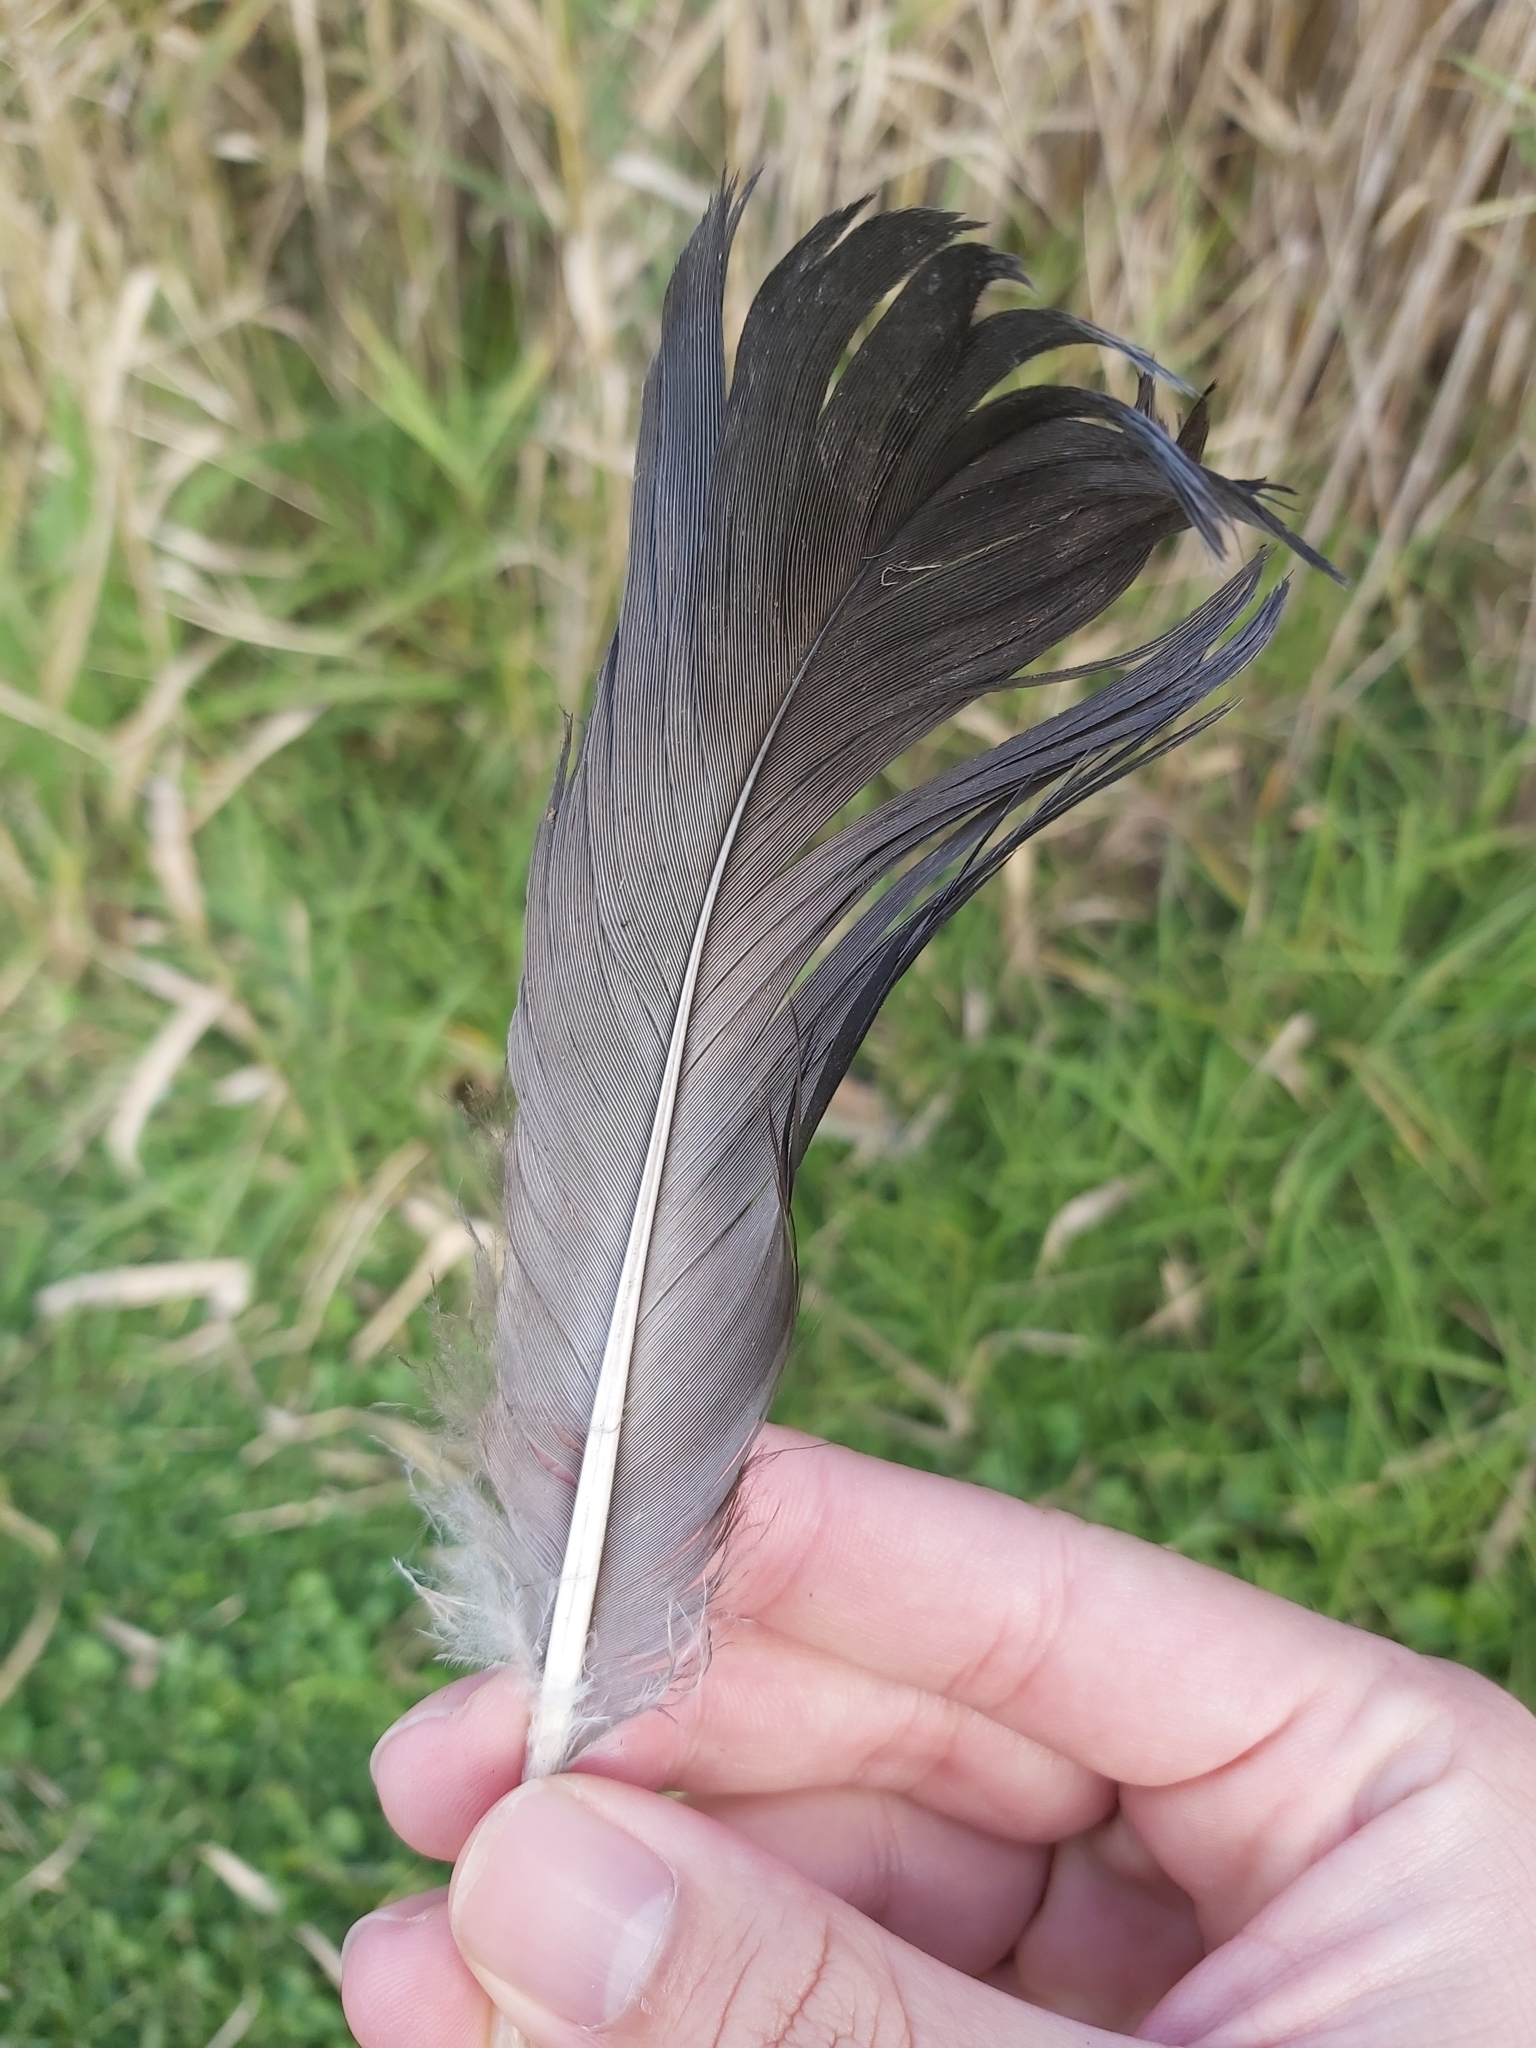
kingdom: Animalia
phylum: Chordata
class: Aves
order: Anseriformes
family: Anatidae
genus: Cygnus
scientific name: Cygnus atratus
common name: Black swan
